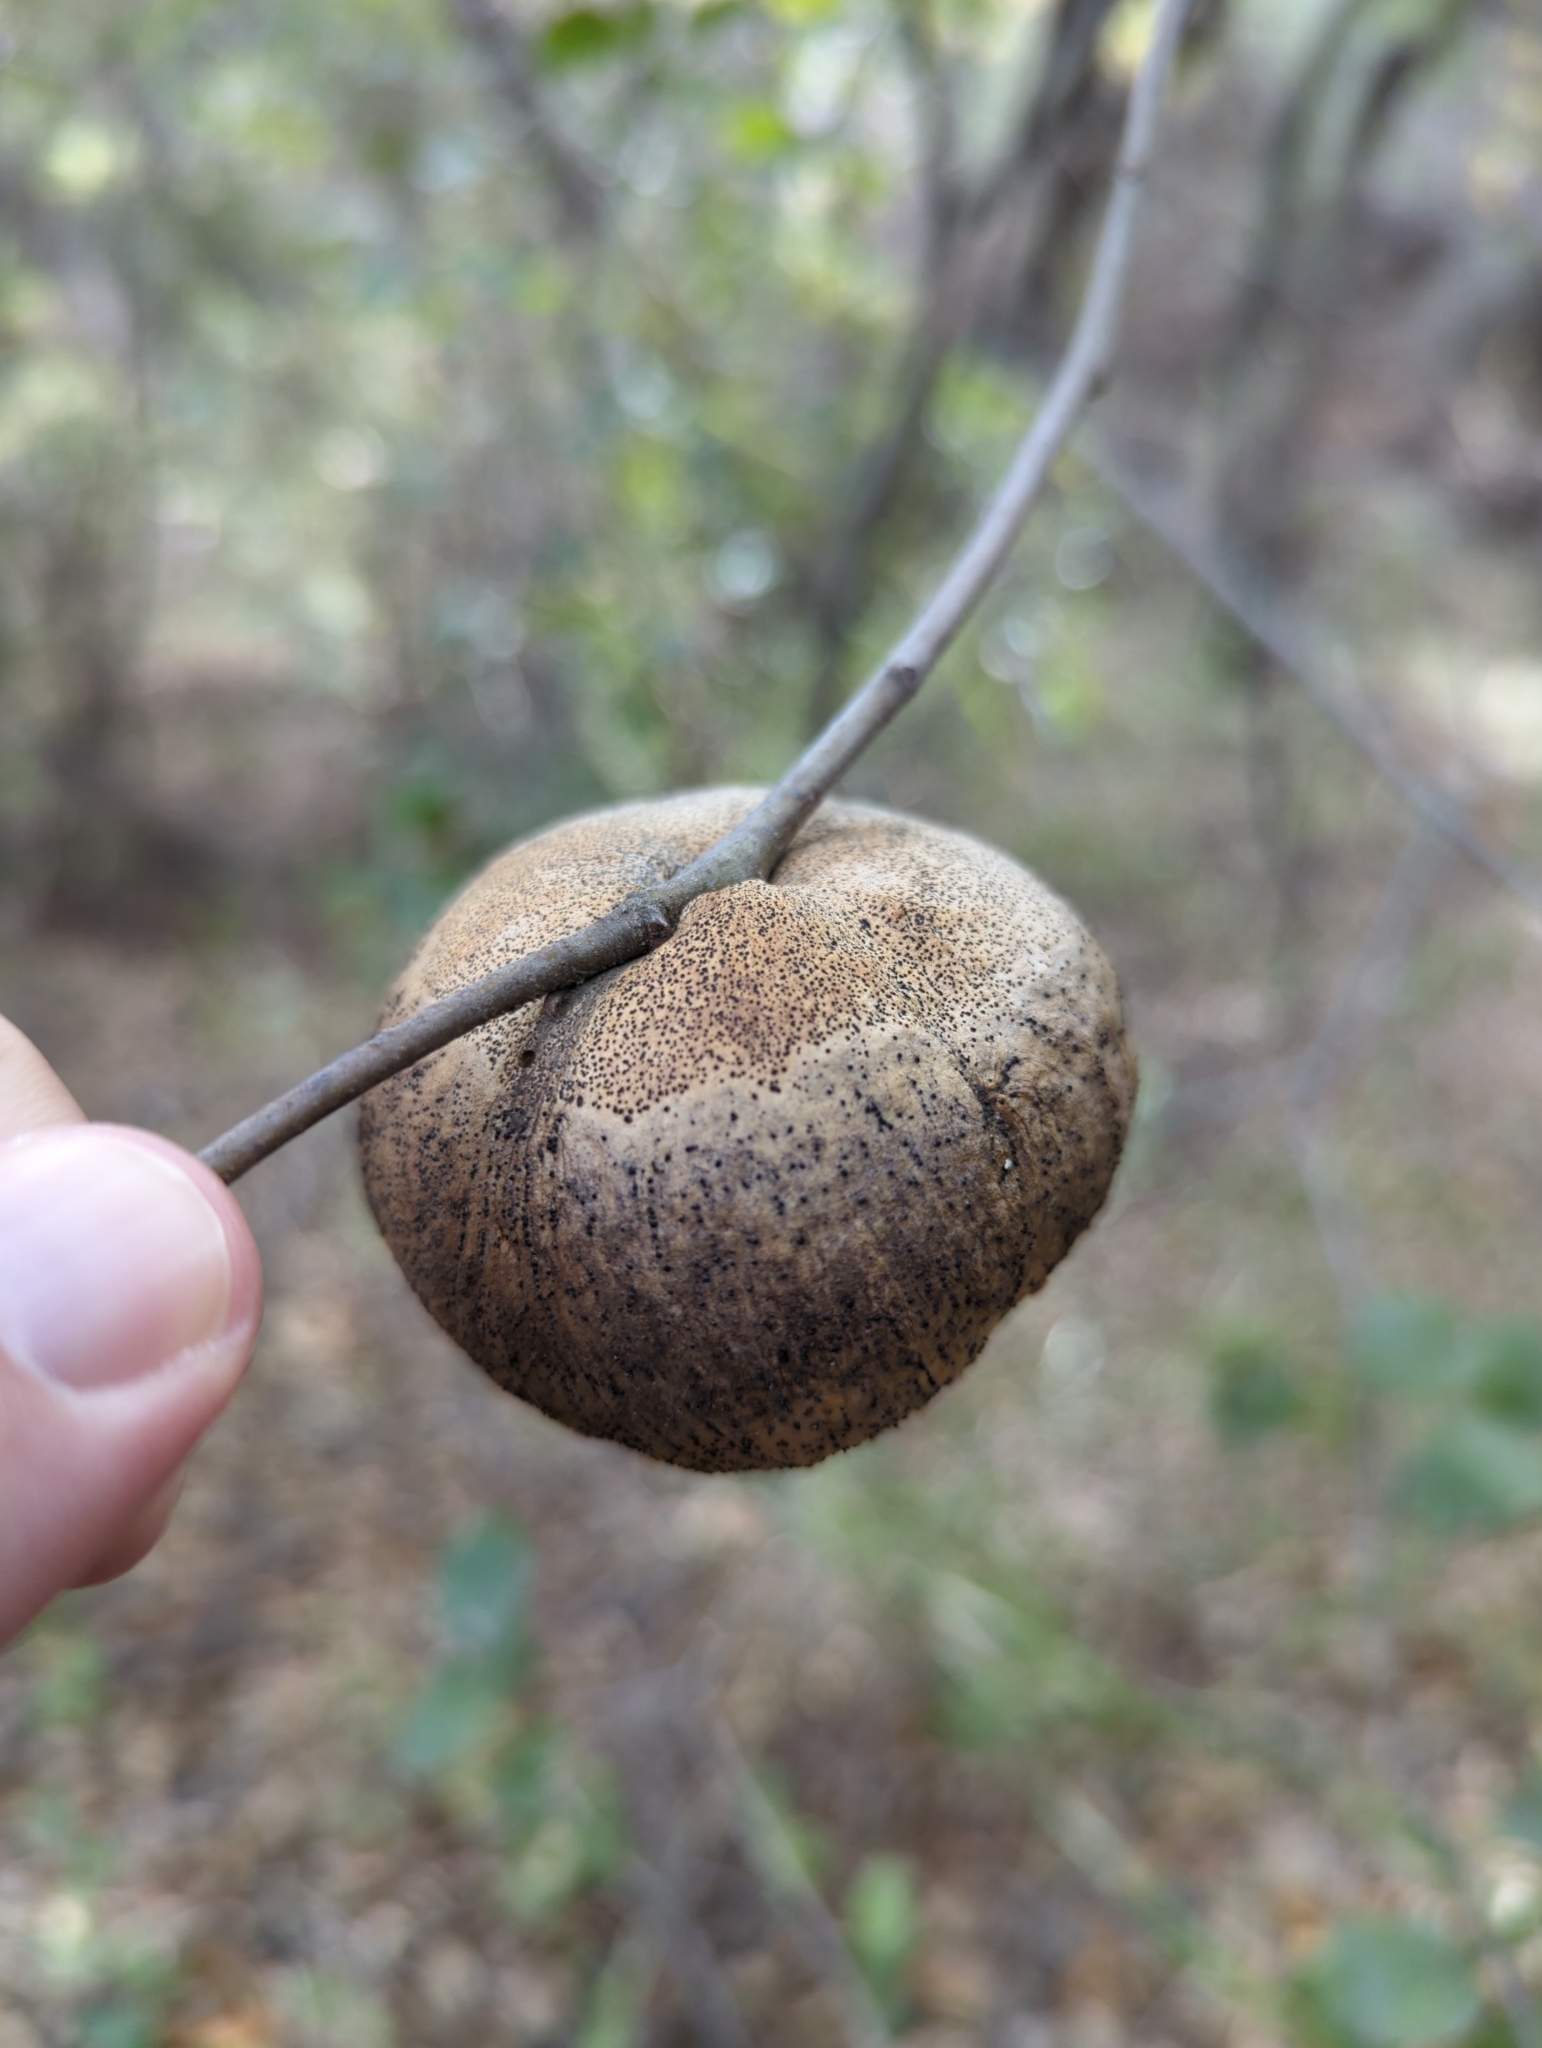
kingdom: Animalia
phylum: Arthropoda
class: Insecta
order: Hymenoptera
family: Cynipidae
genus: Amphibolips
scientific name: Amphibolips quercuspomiformis
